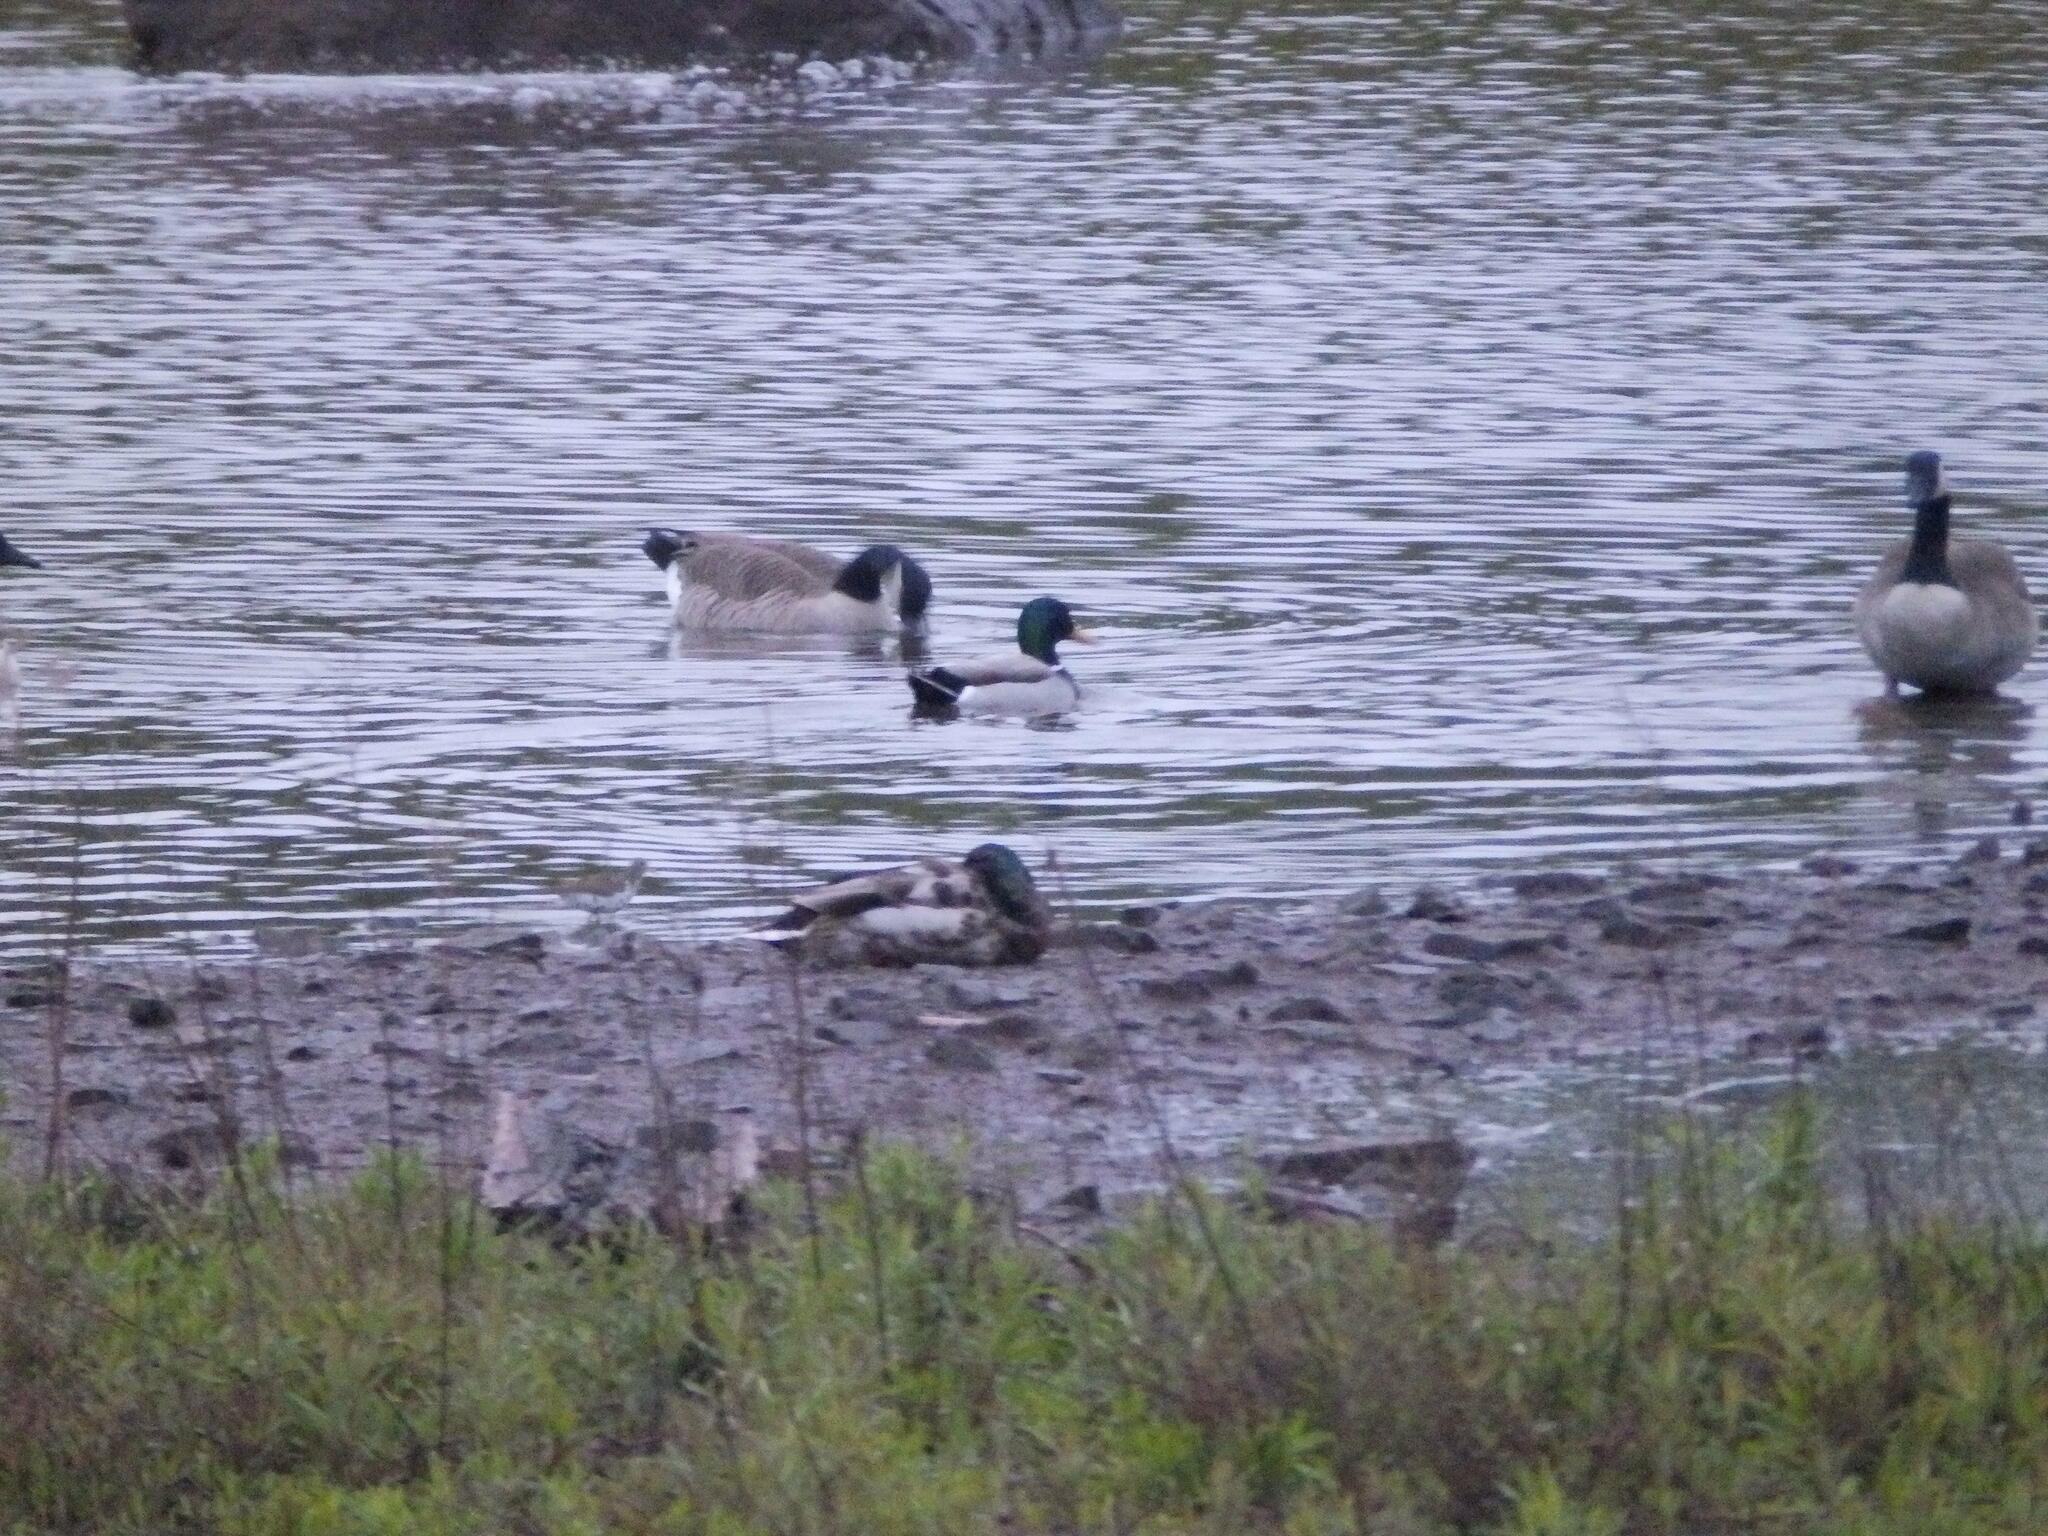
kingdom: Animalia
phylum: Chordata
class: Aves
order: Anseriformes
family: Anatidae
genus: Anas
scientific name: Anas platyrhynchos
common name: Mallard
